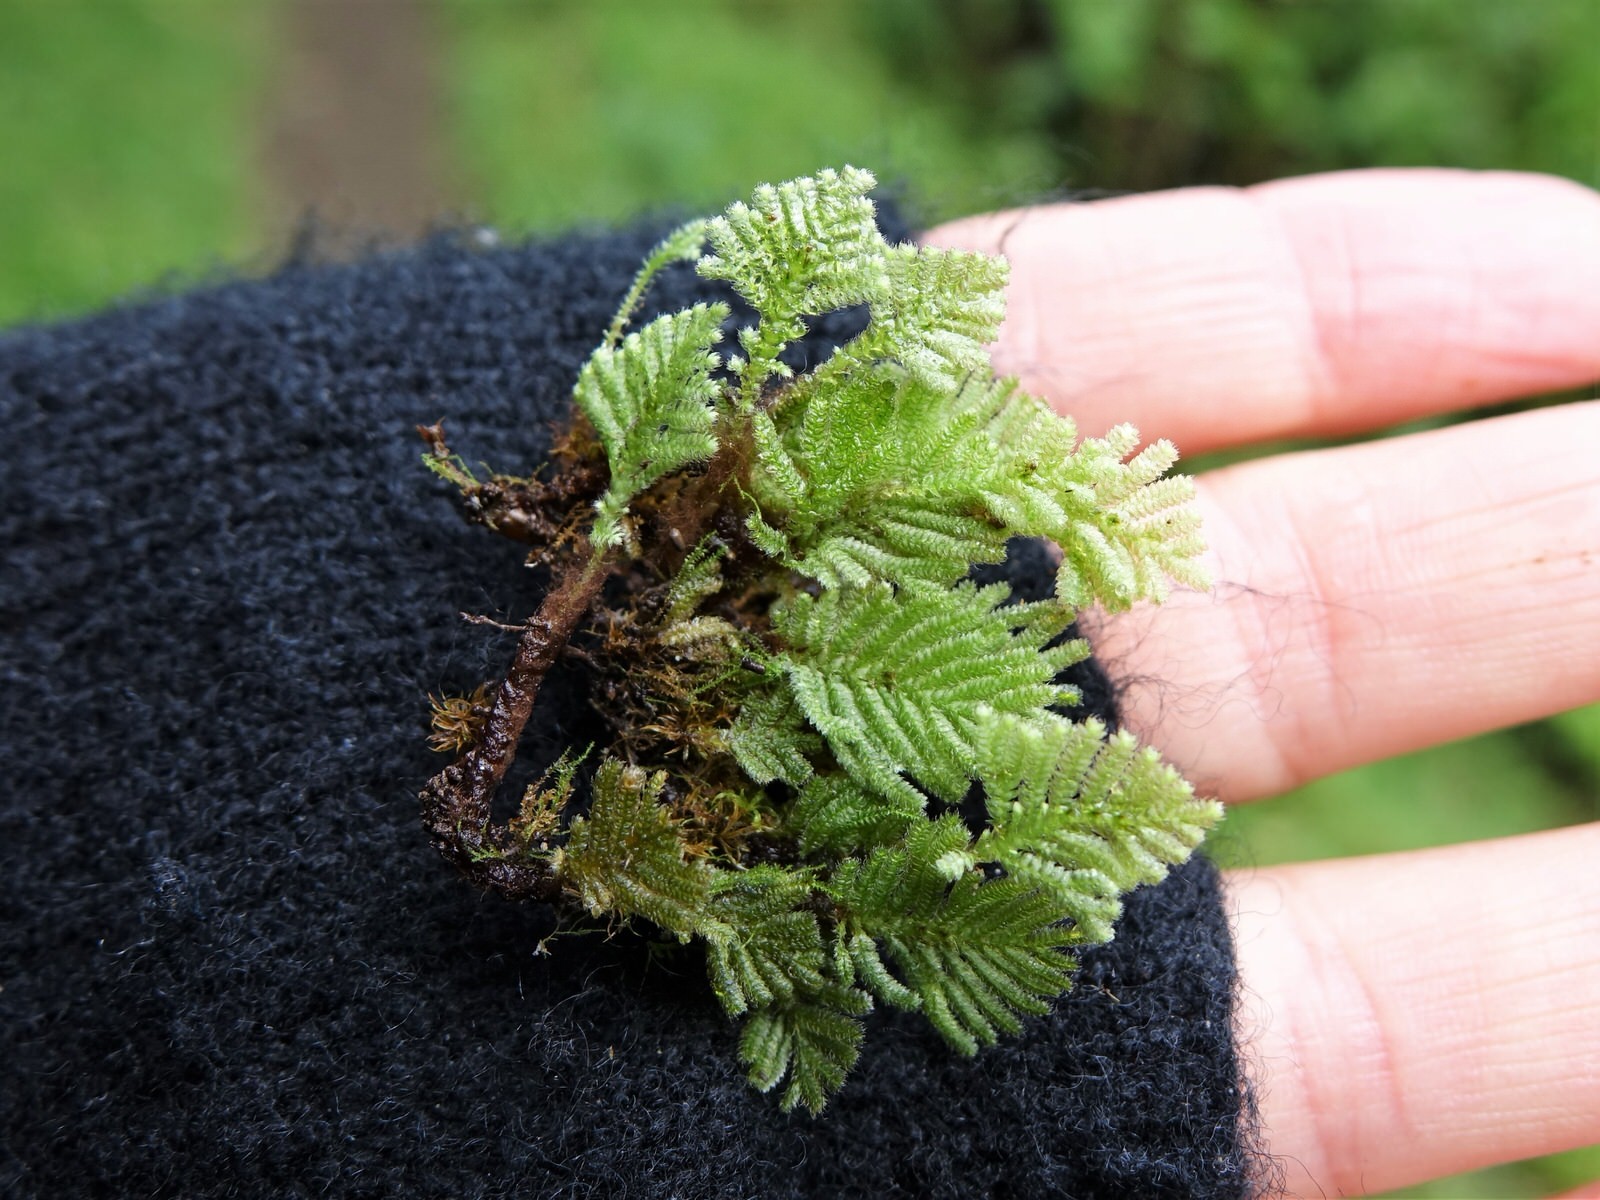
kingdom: Plantae
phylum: Bryophyta
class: Bryopsida
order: Hypopterygiales
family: Hypopterygiaceae
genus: Catharomnion
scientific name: Catharomnion ciliatum
